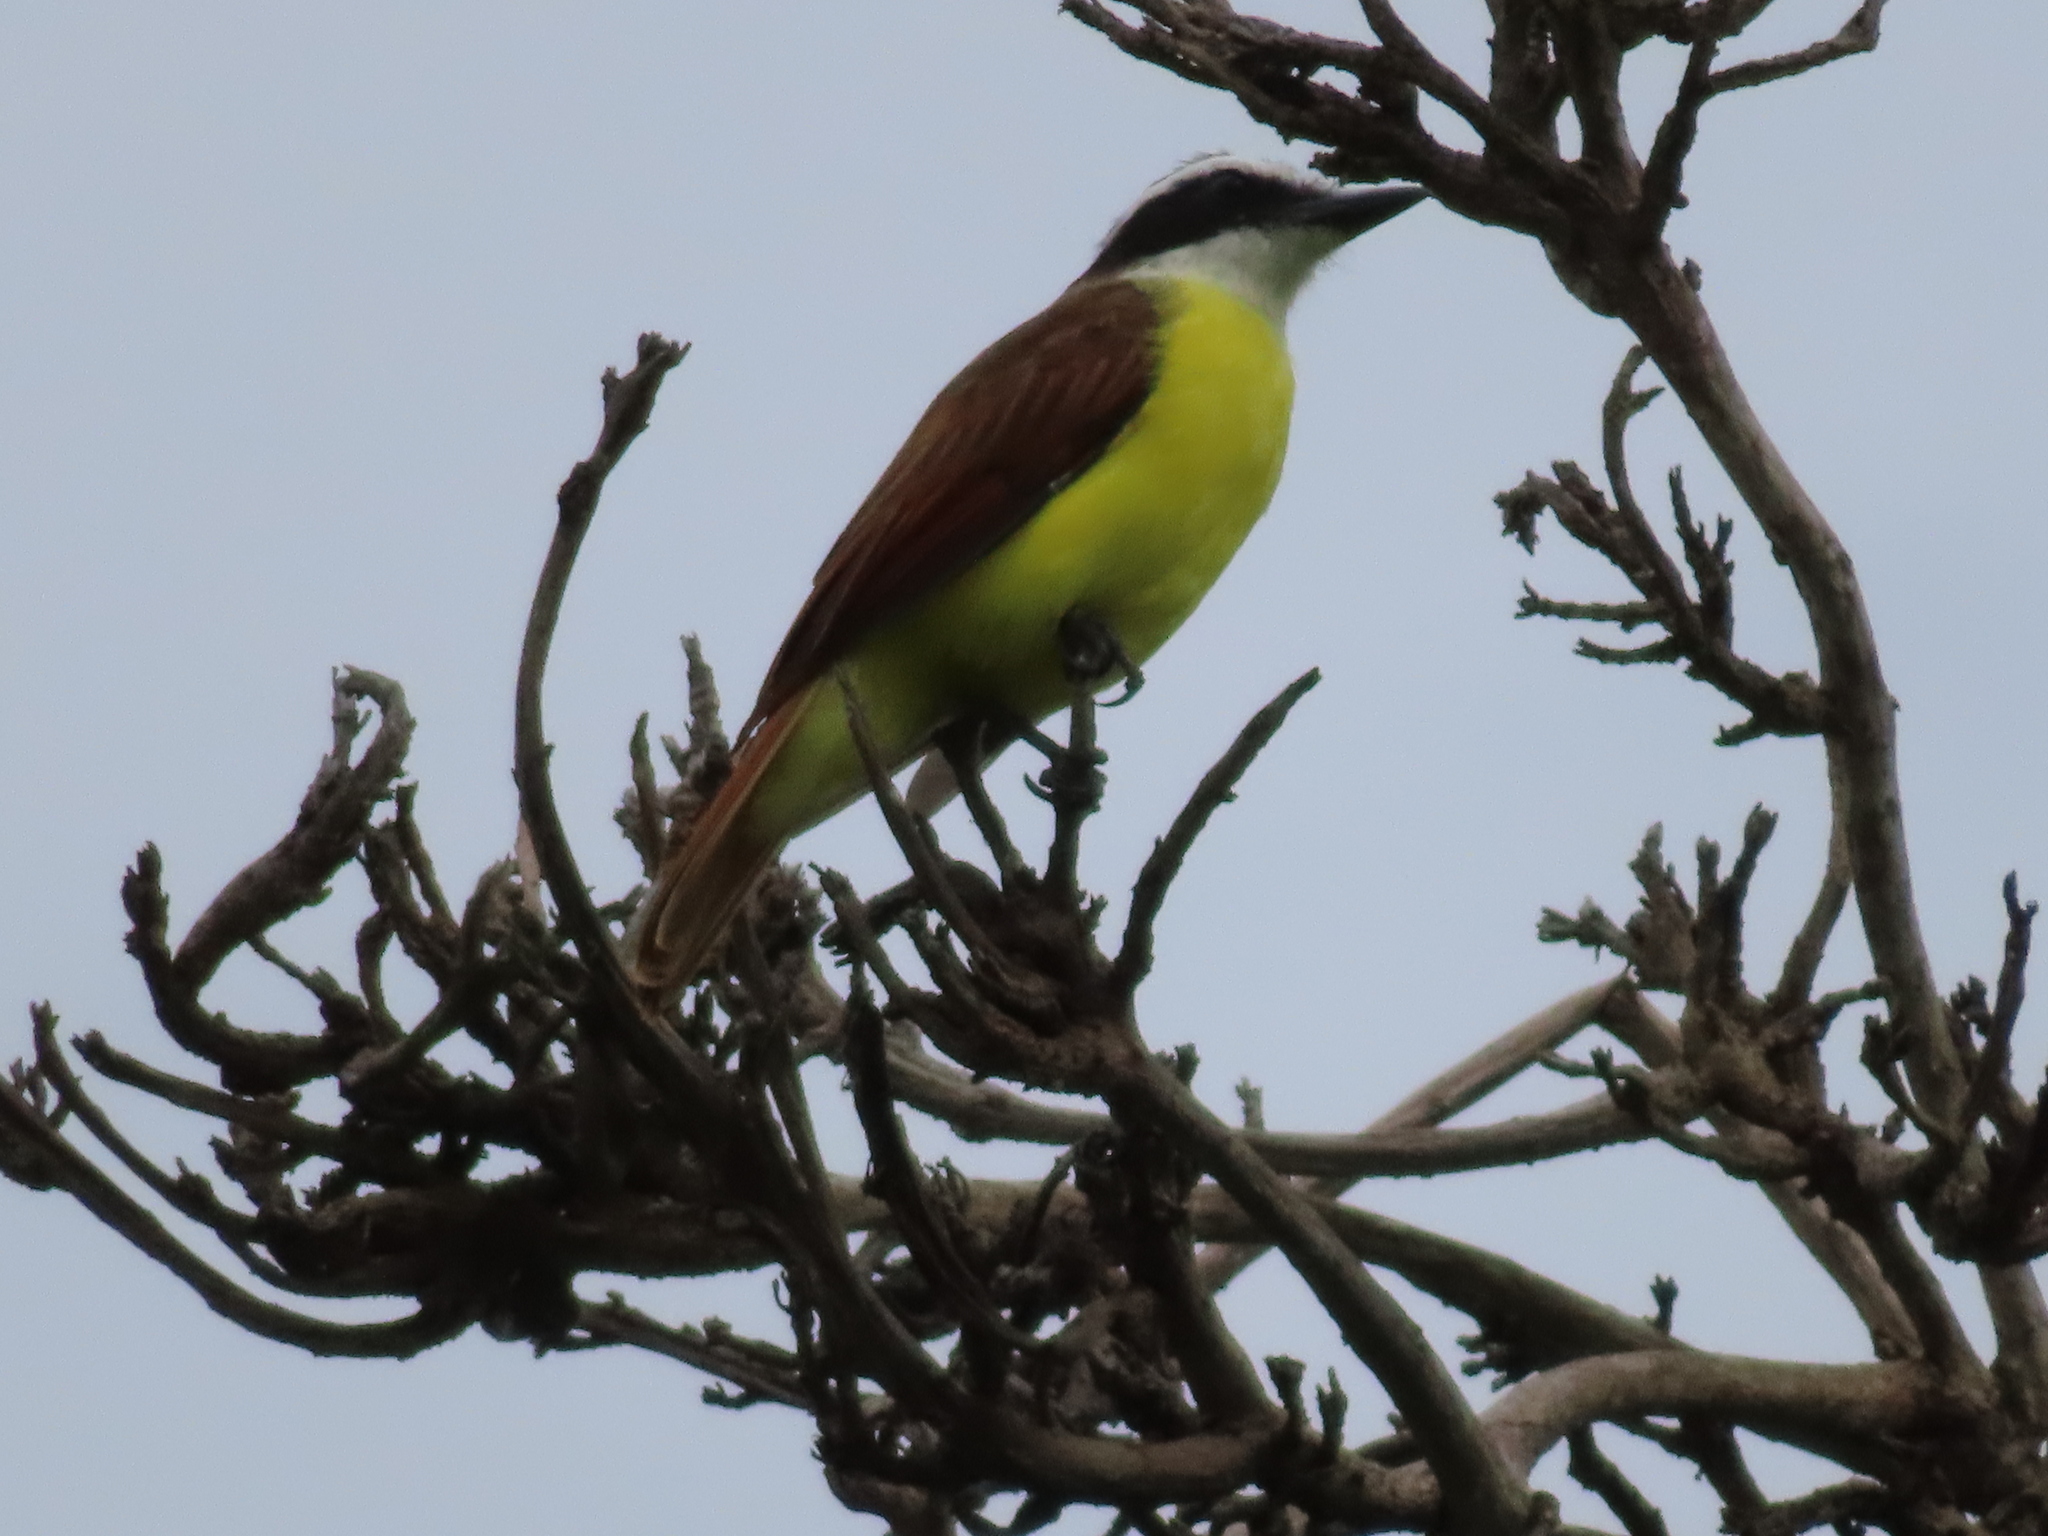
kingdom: Animalia
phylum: Chordata
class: Aves
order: Passeriformes
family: Tyrannidae
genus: Pitangus
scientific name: Pitangus sulphuratus
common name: Great kiskadee
